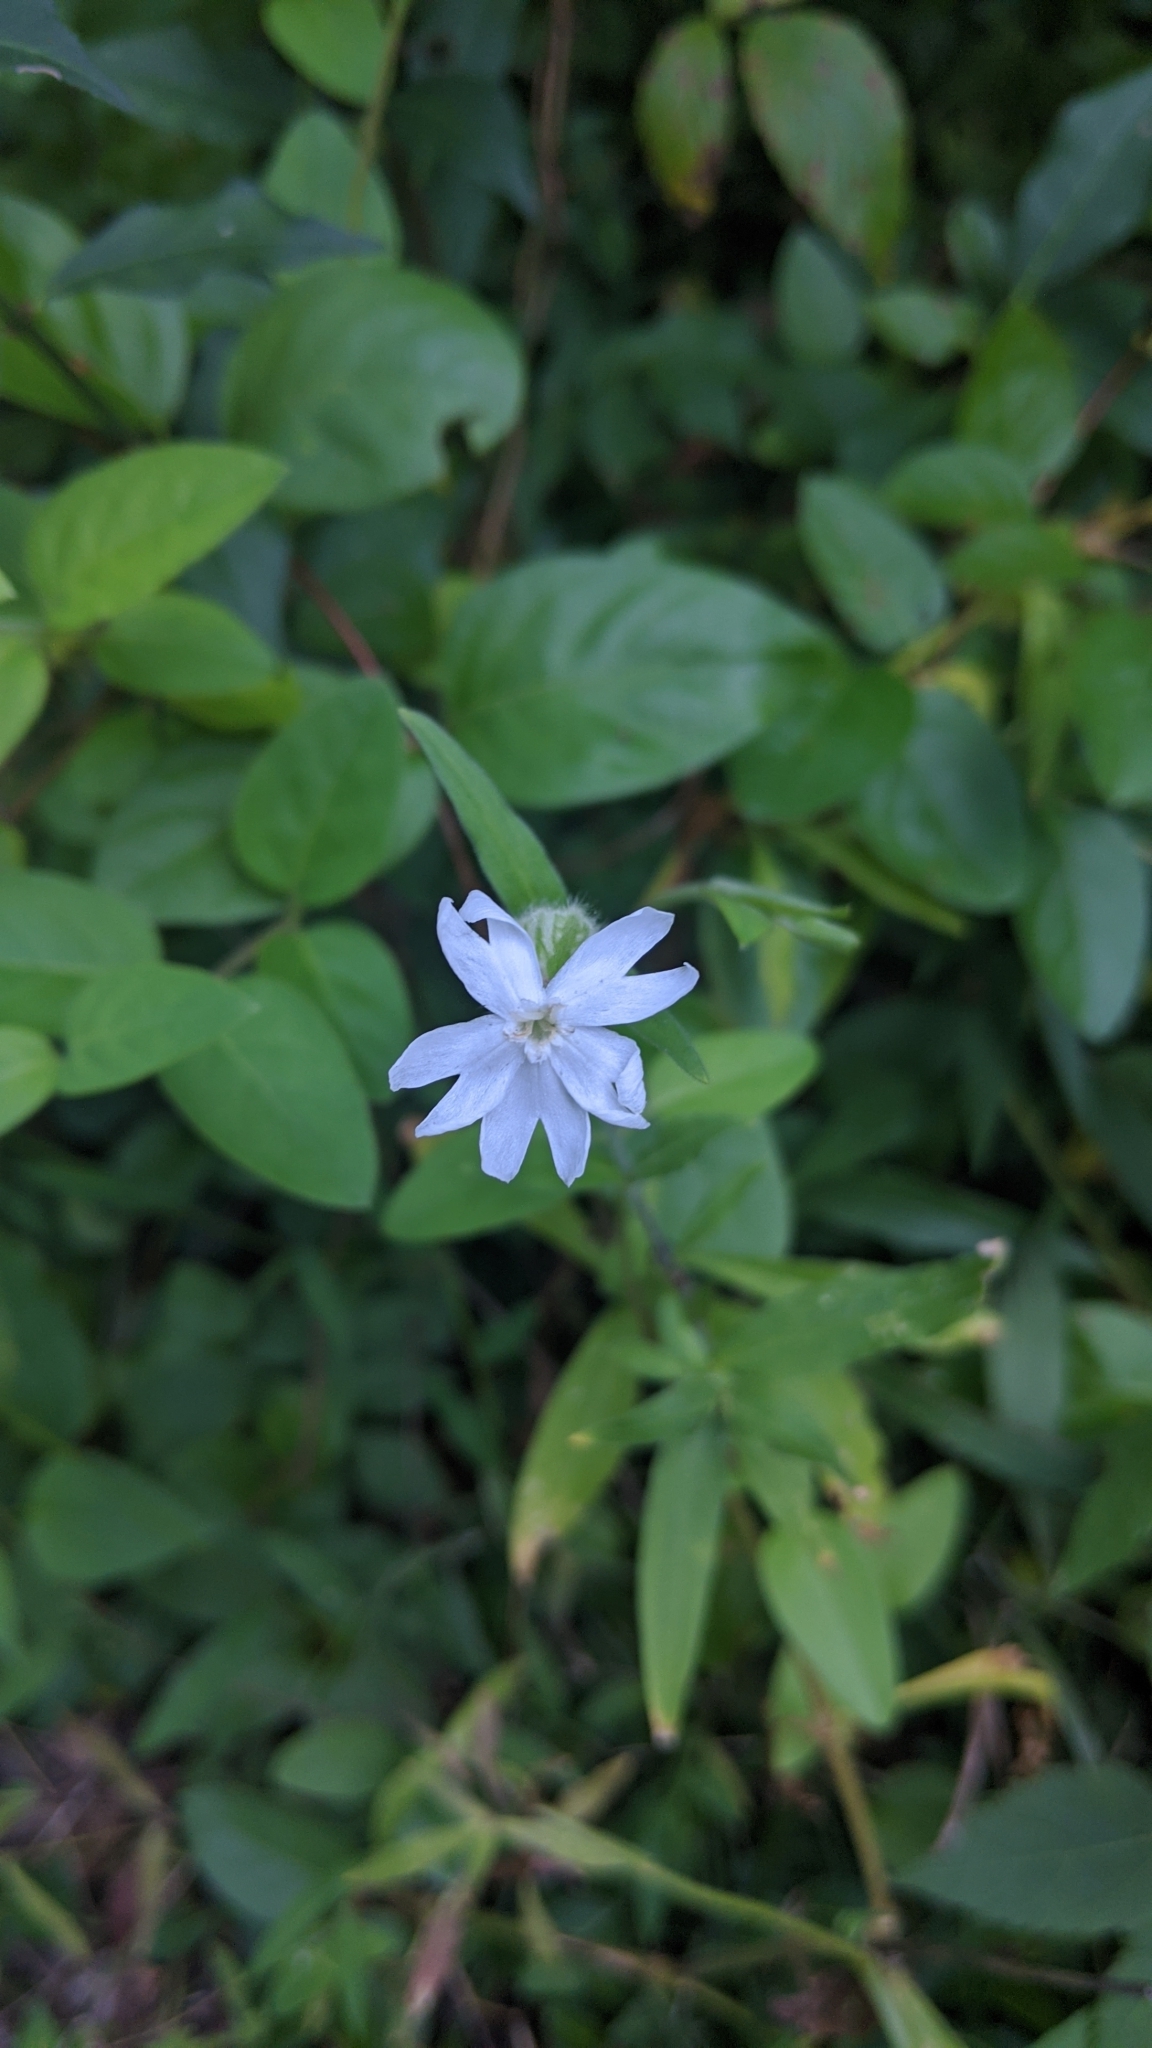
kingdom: Plantae
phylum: Tracheophyta
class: Magnoliopsida
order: Caryophyllales
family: Caryophyllaceae
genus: Silene
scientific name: Silene latifolia
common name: White campion
